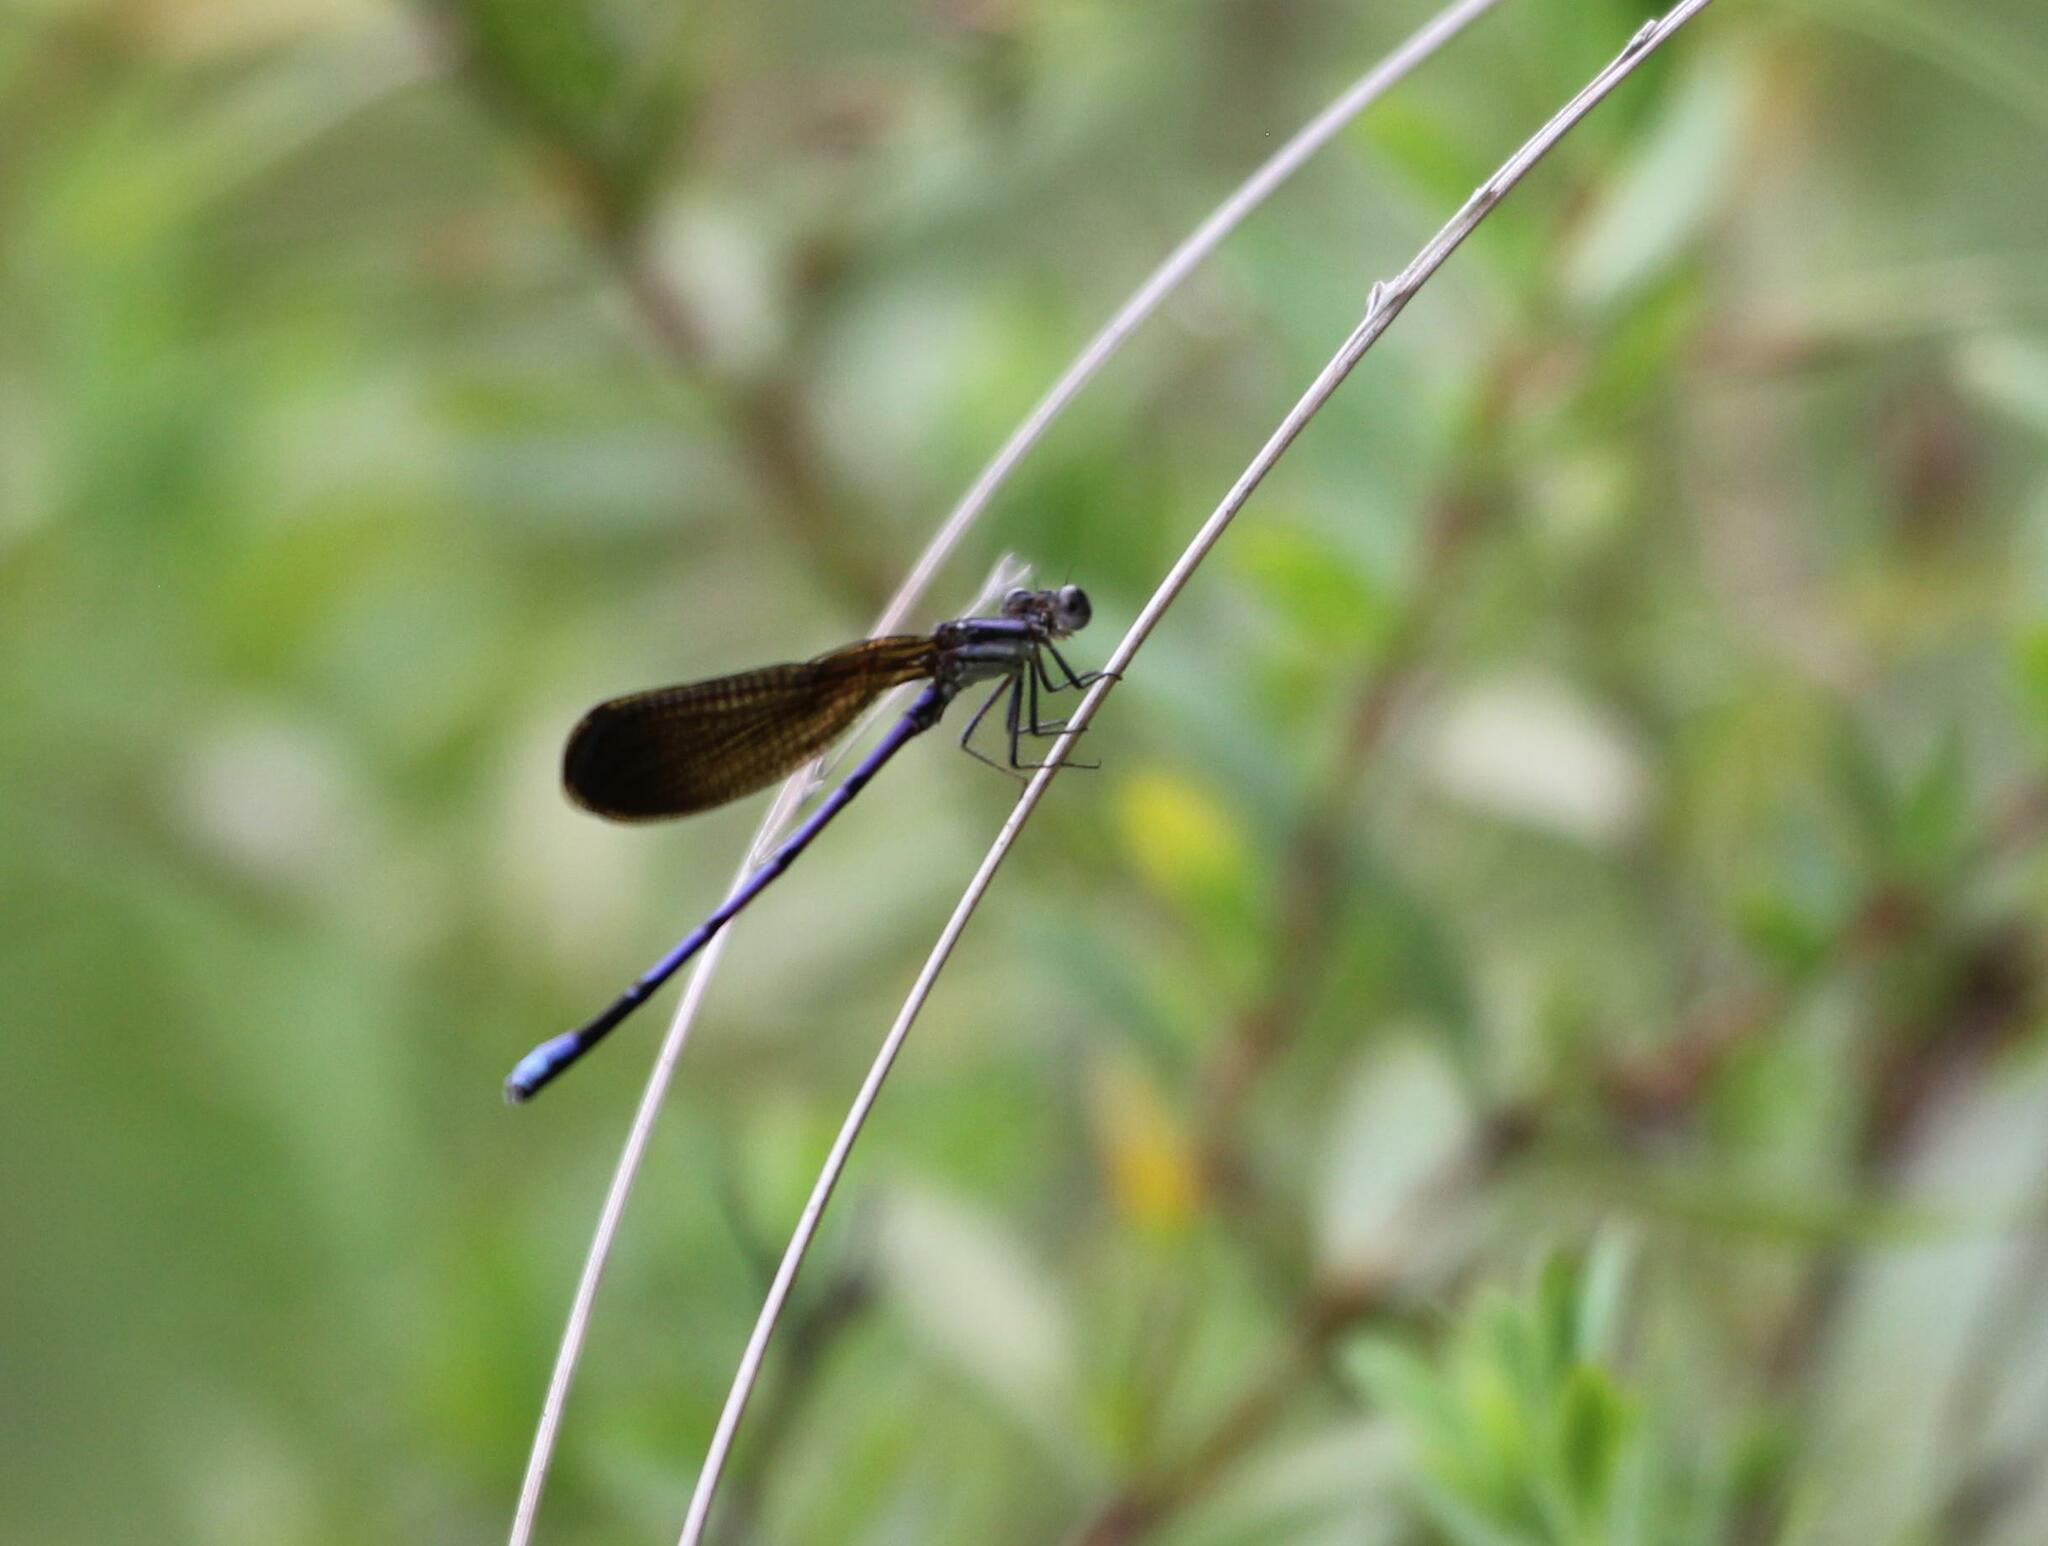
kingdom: Animalia
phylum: Arthropoda
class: Insecta
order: Odonata
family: Coenagrionidae
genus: Argia
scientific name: Argia fumipennis
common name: Variable dancer
